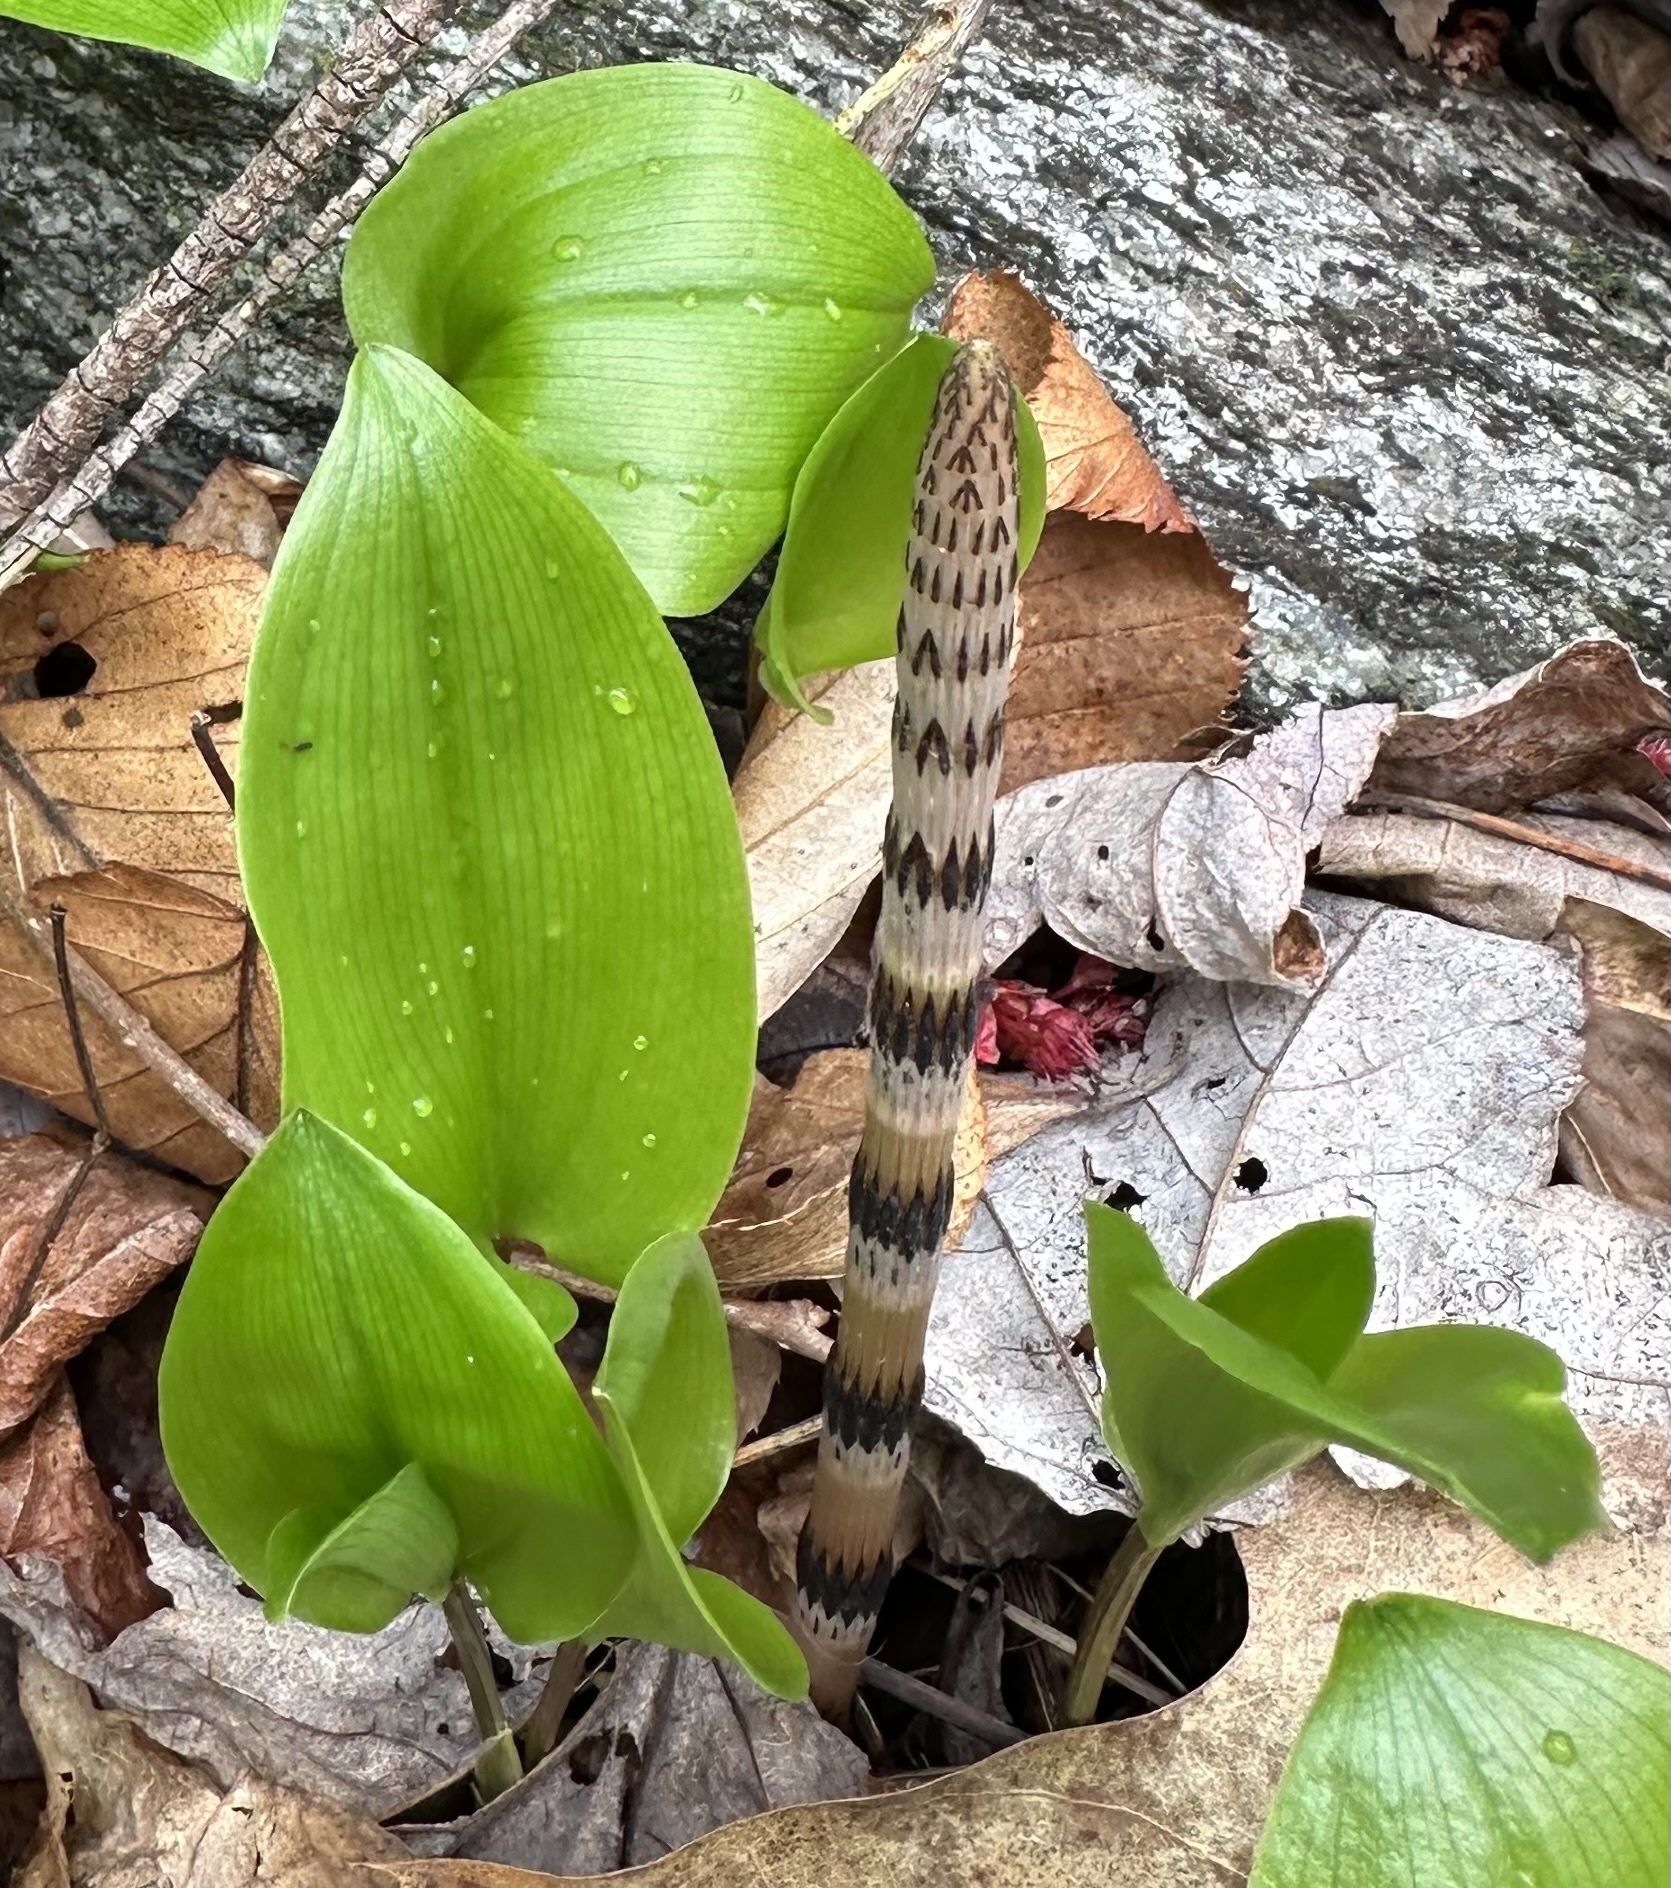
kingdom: Plantae
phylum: Tracheophyta
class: Polypodiopsida
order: Equisetales
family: Equisetaceae
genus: Equisetum
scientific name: Equisetum arvense
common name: Field horsetail
